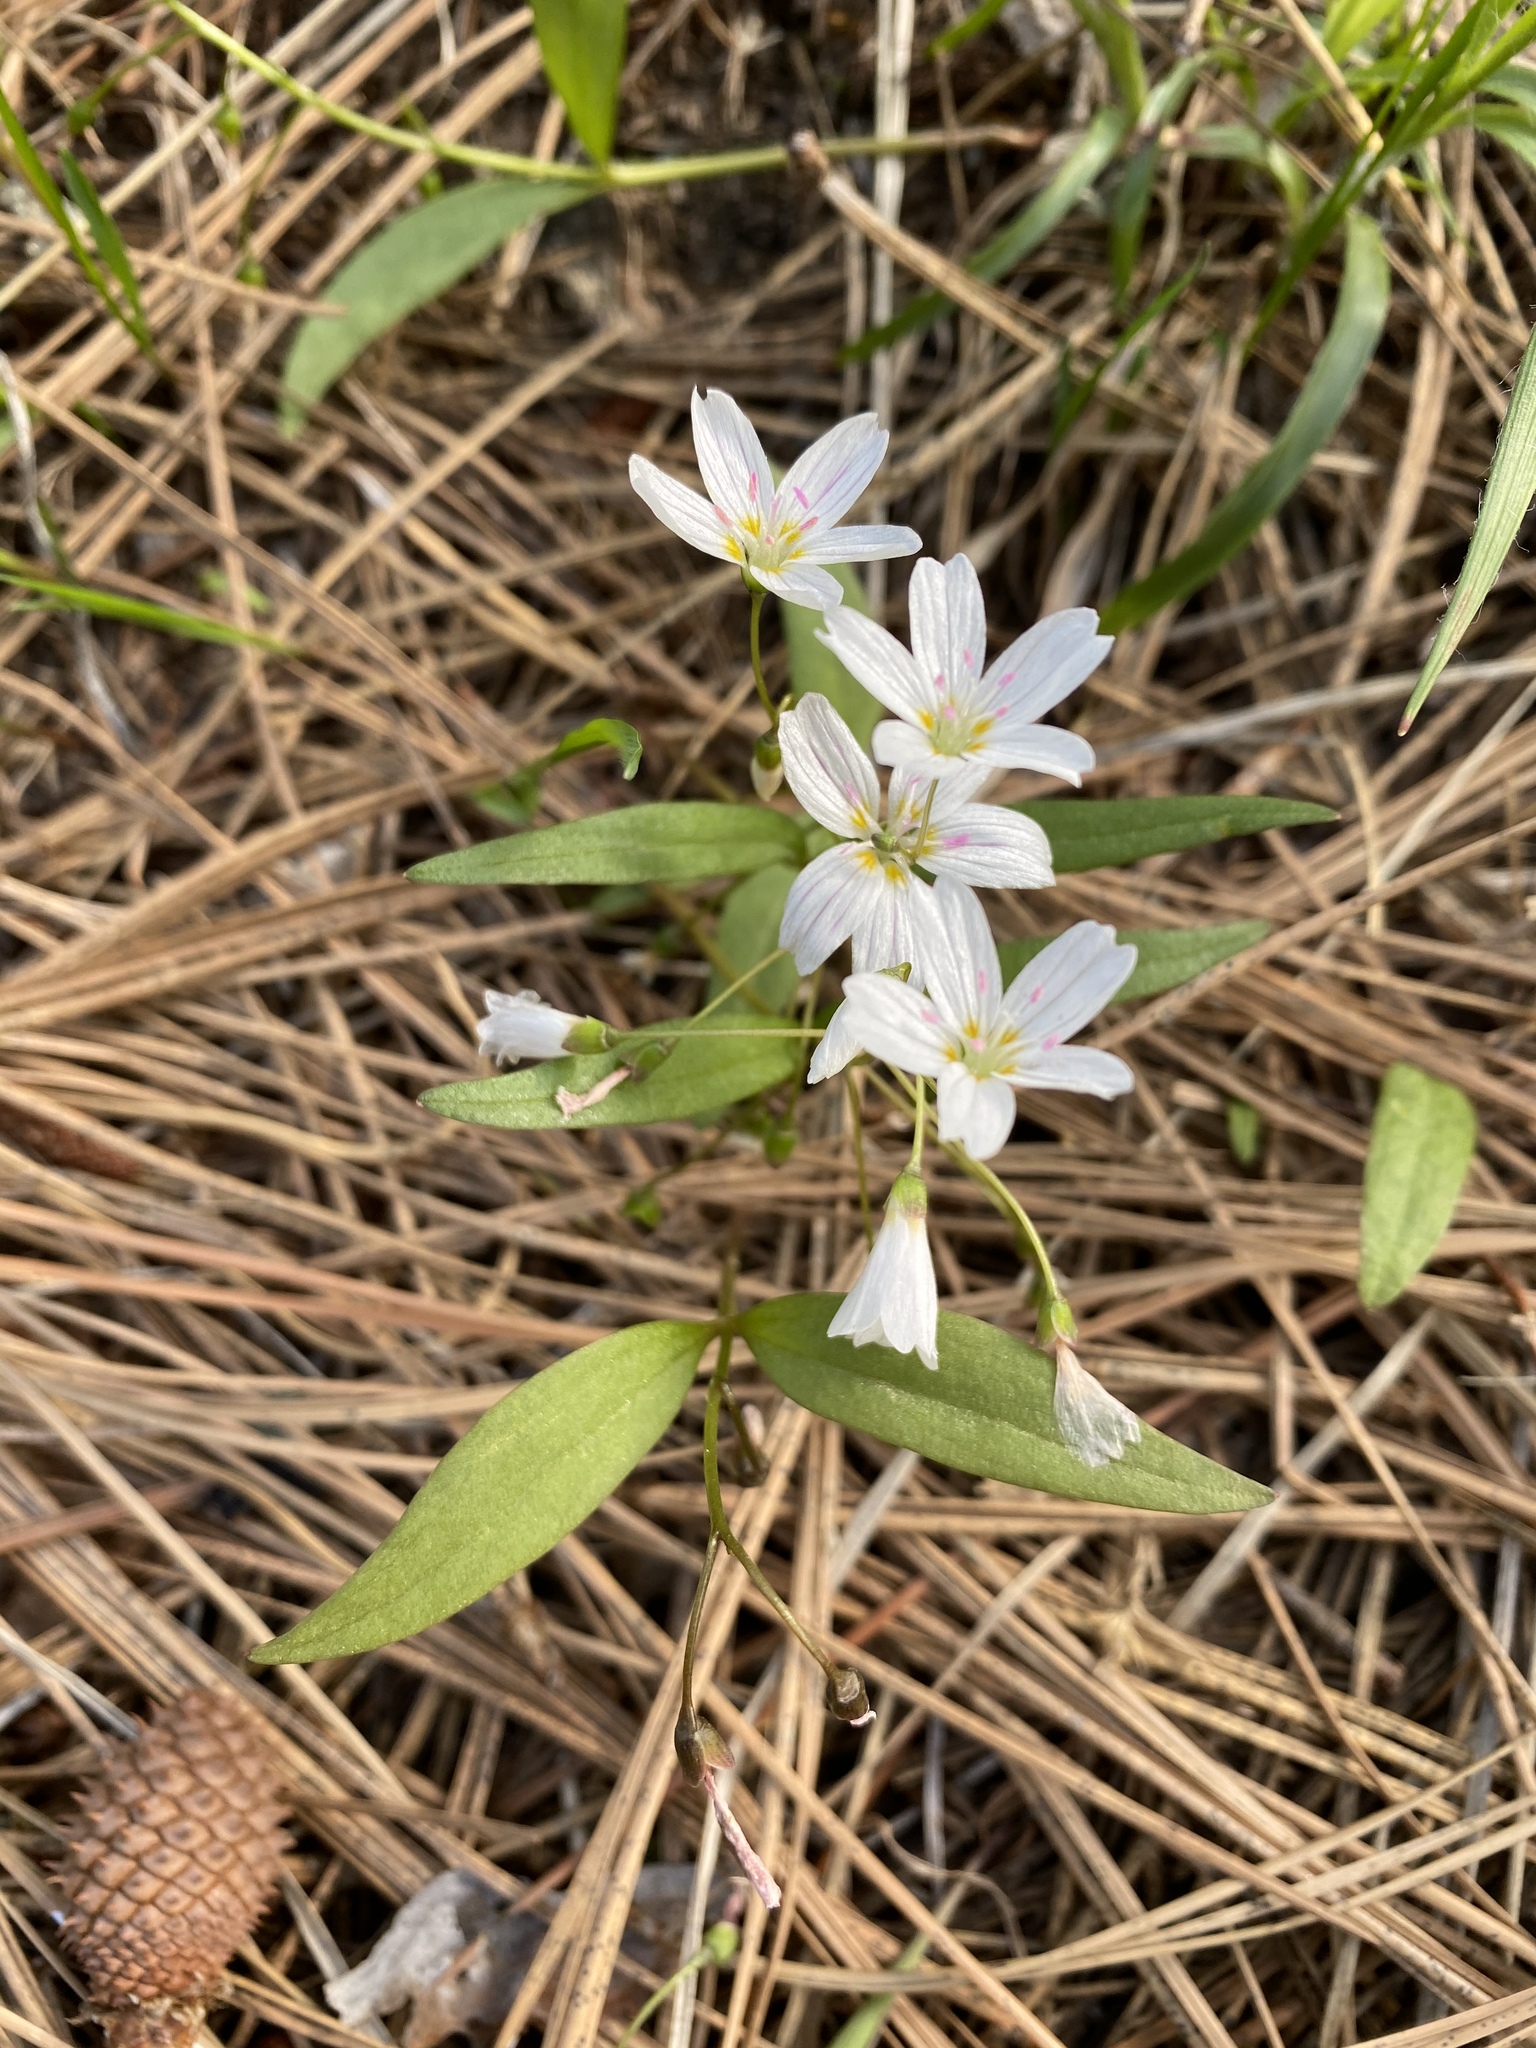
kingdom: Plantae
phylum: Tracheophyta
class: Magnoliopsida
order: Caryophyllales
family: Montiaceae
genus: Claytonia
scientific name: Claytonia lanceolata
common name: Western spring-beauty
